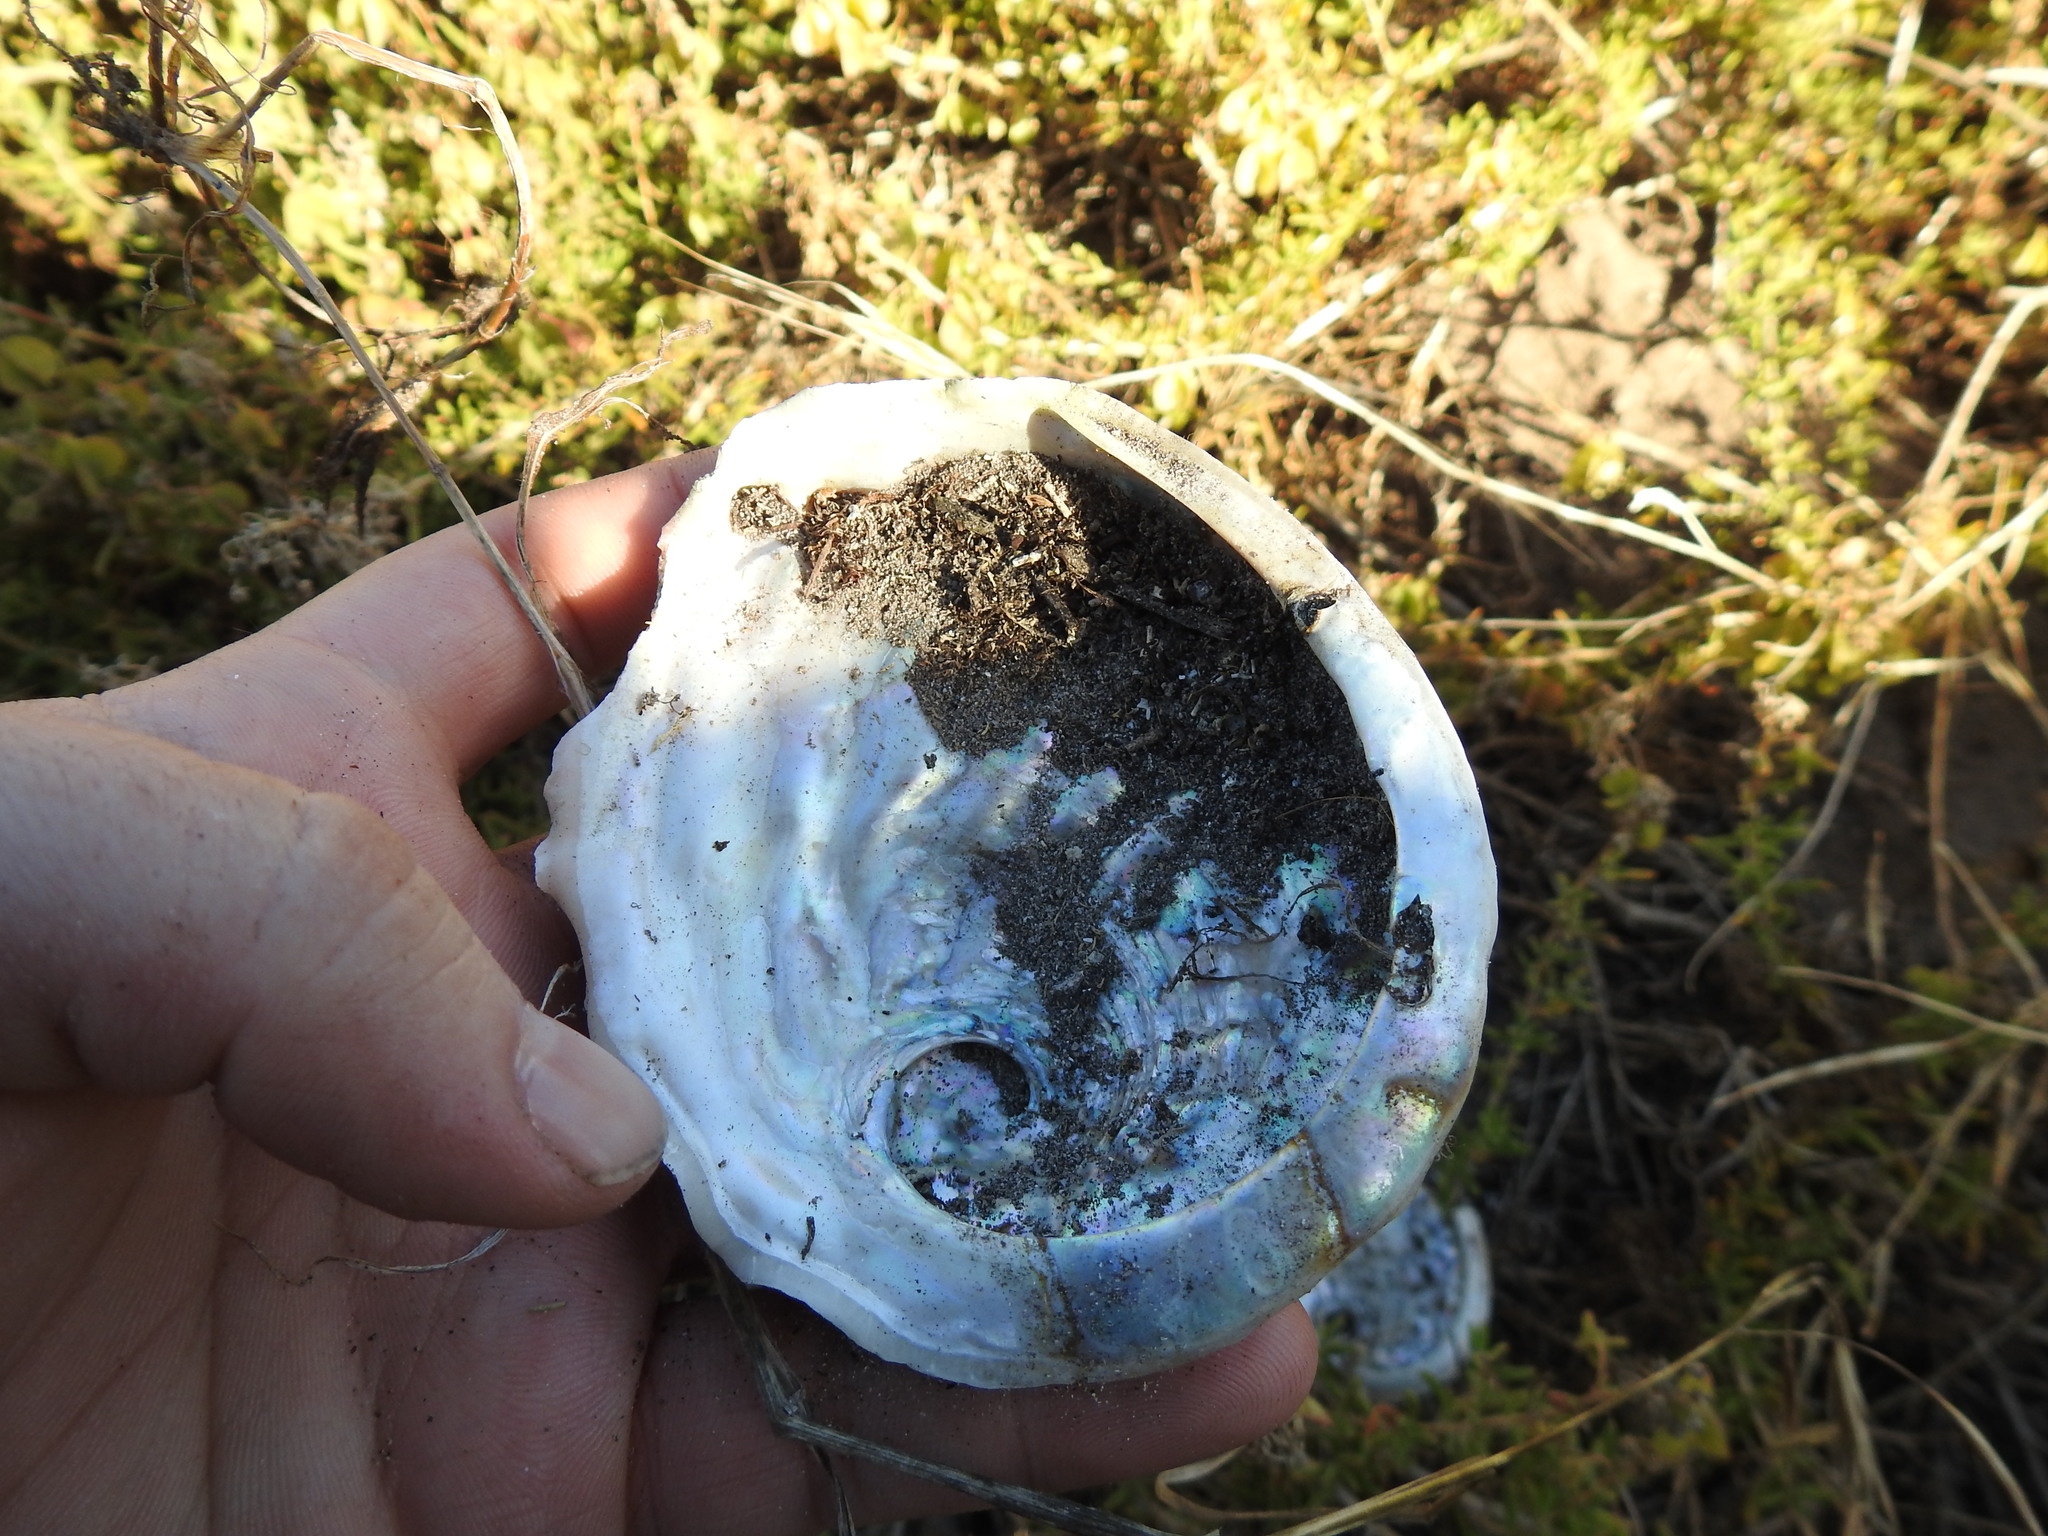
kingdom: Animalia
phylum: Mollusca
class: Gastropoda
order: Lepetellida
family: Haliotidae
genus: Haliotis
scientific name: Haliotis midae
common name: Perlemoen
